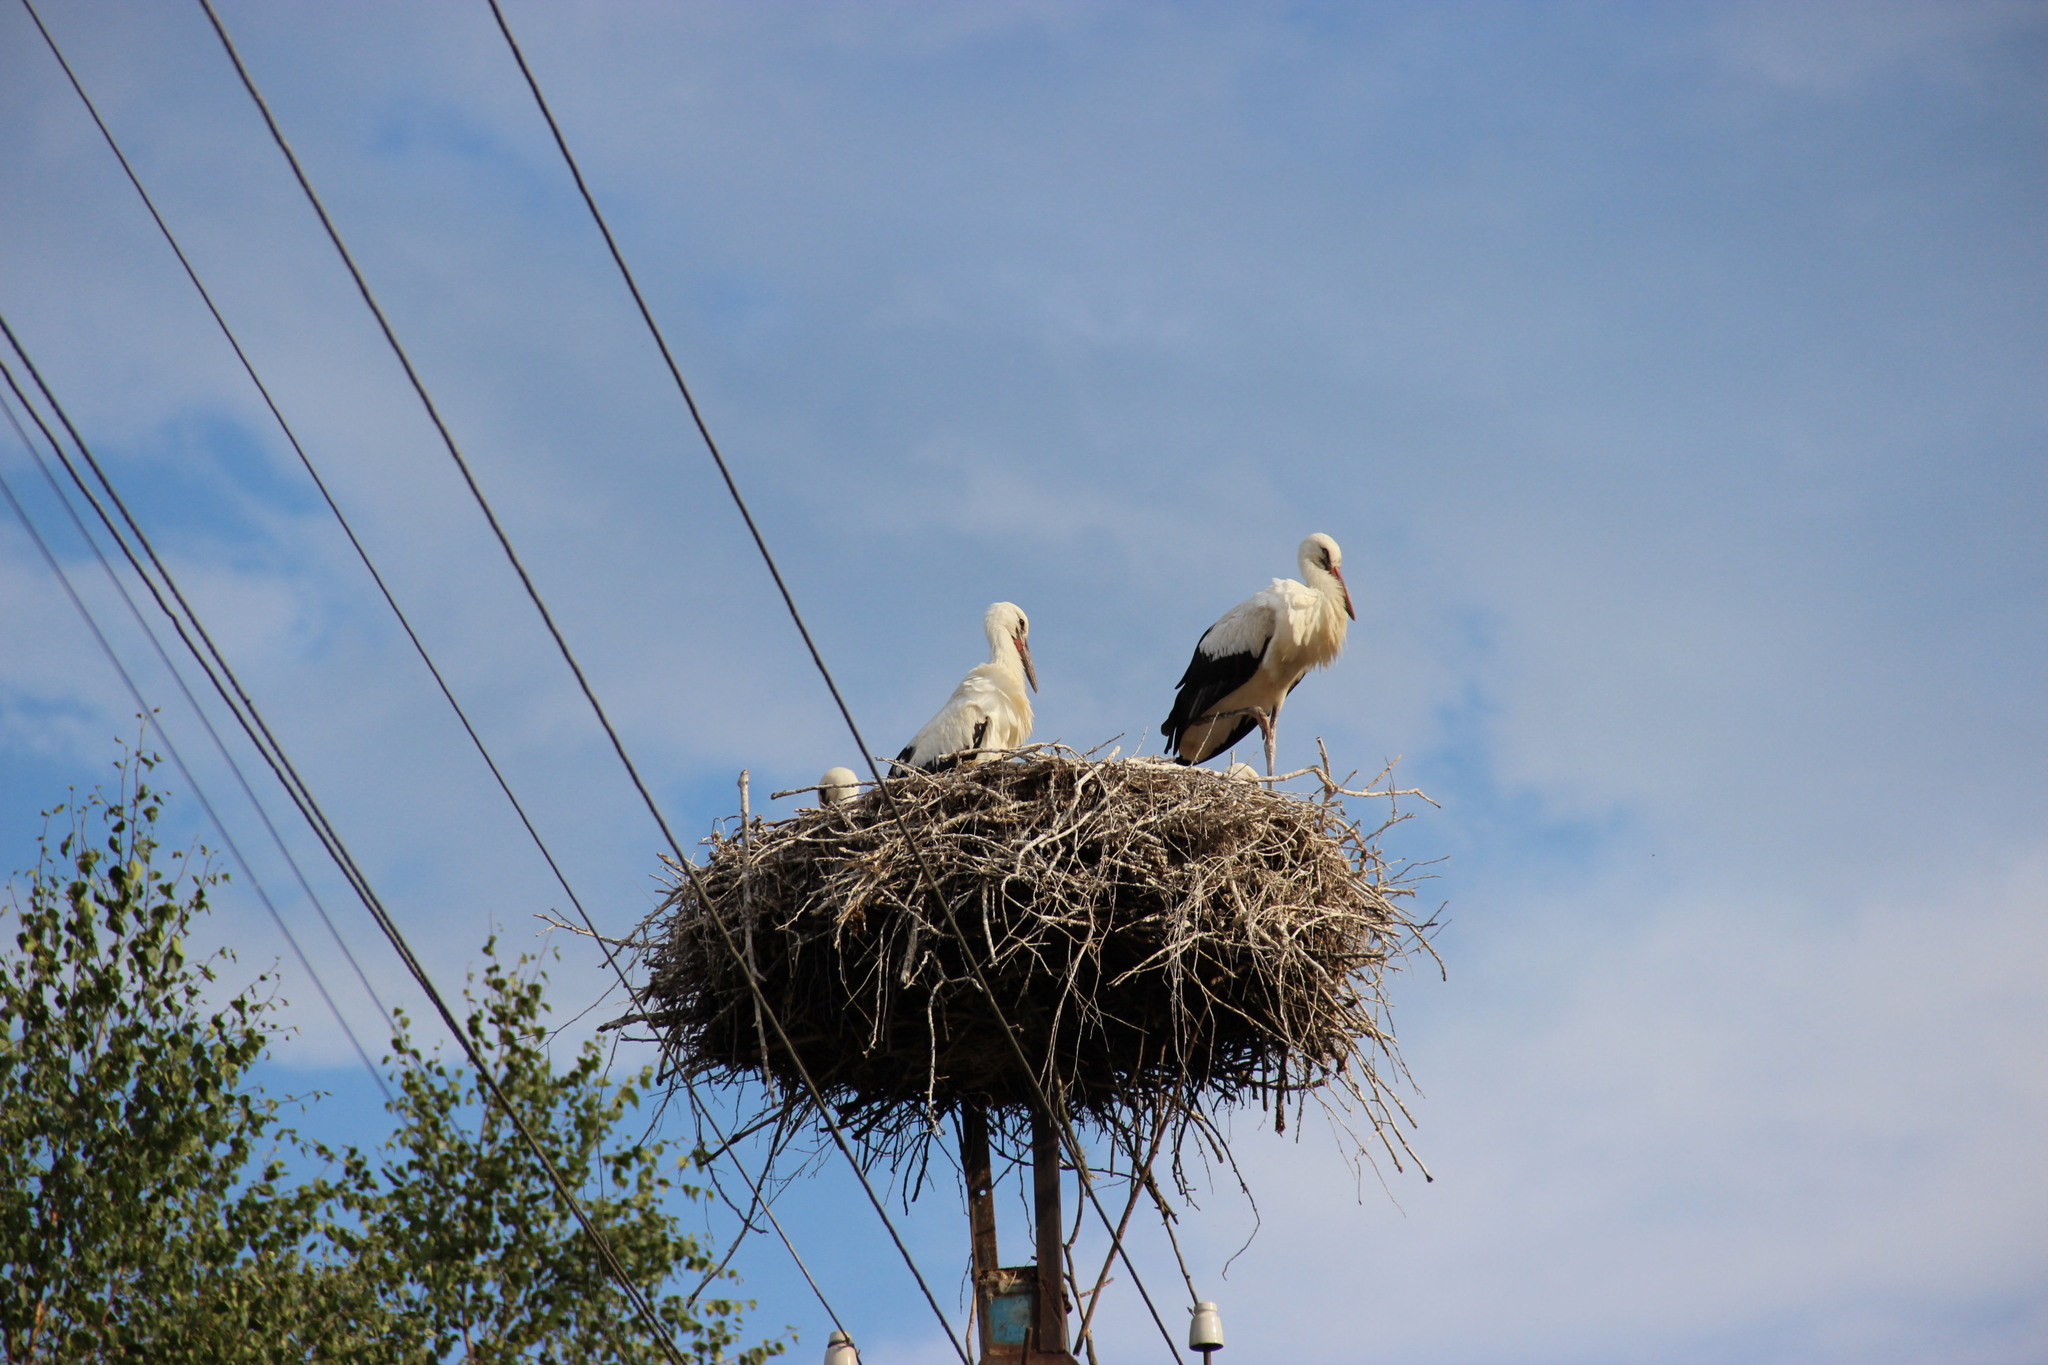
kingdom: Animalia
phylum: Chordata
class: Aves
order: Ciconiiformes
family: Ciconiidae
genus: Ciconia
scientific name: Ciconia ciconia
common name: White stork
